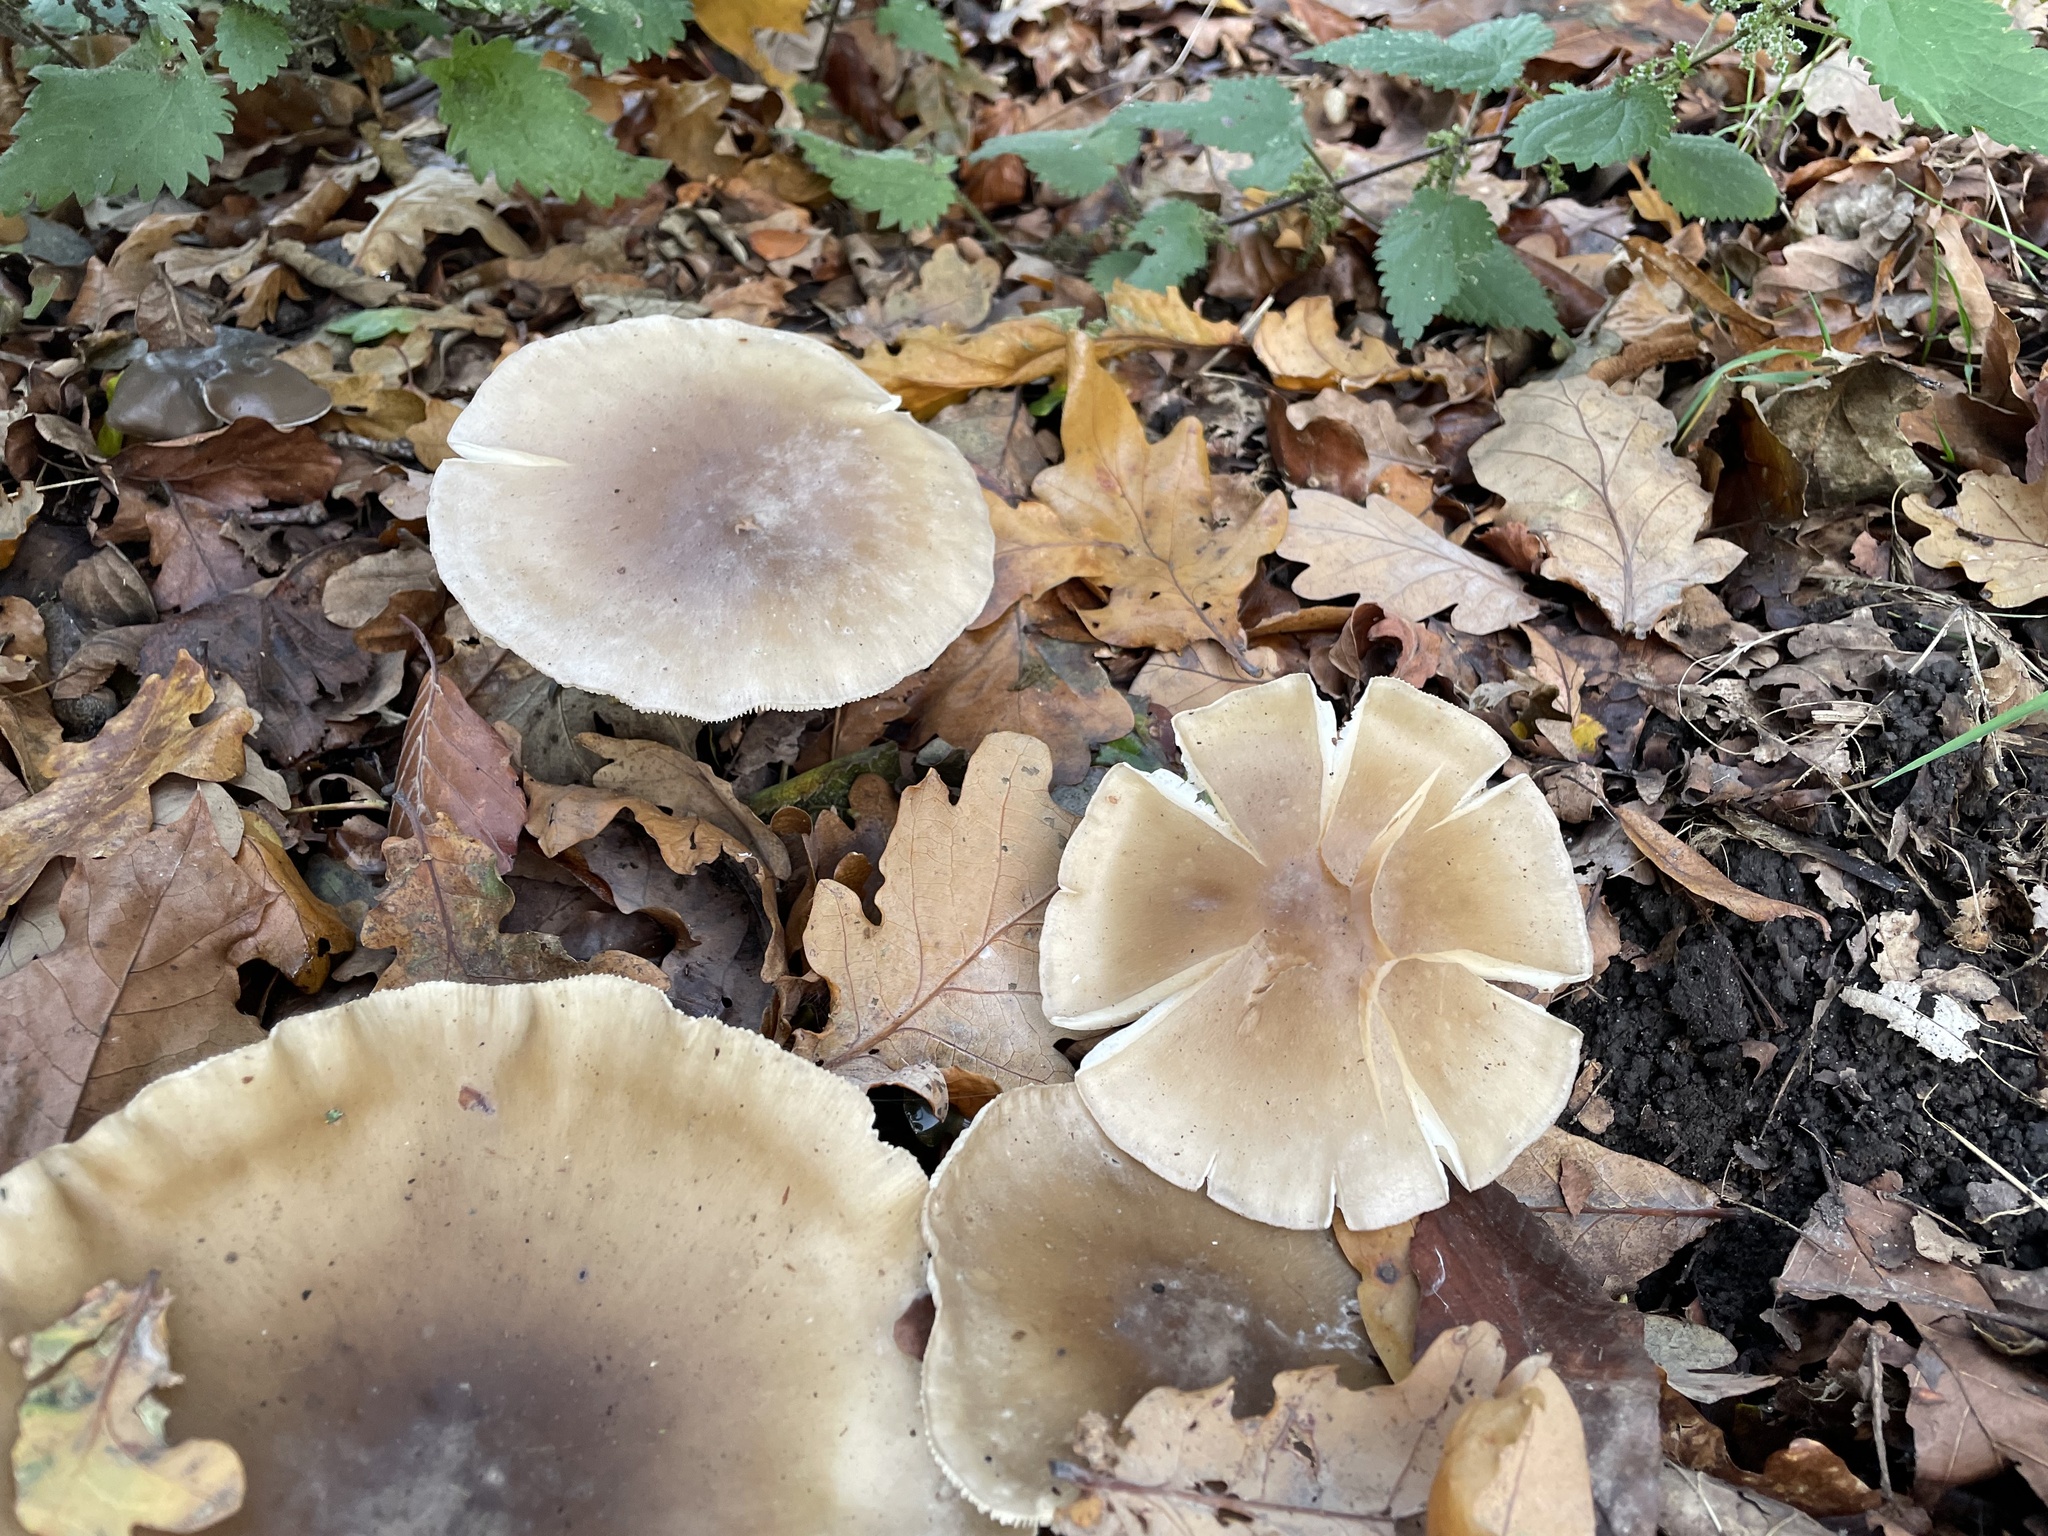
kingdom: Fungi
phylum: Basidiomycota
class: Agaricomycetes
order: Agaricales
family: Tricholomataceae
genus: Clitocybe
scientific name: Clitocybe nebularis
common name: Clouded agaric
